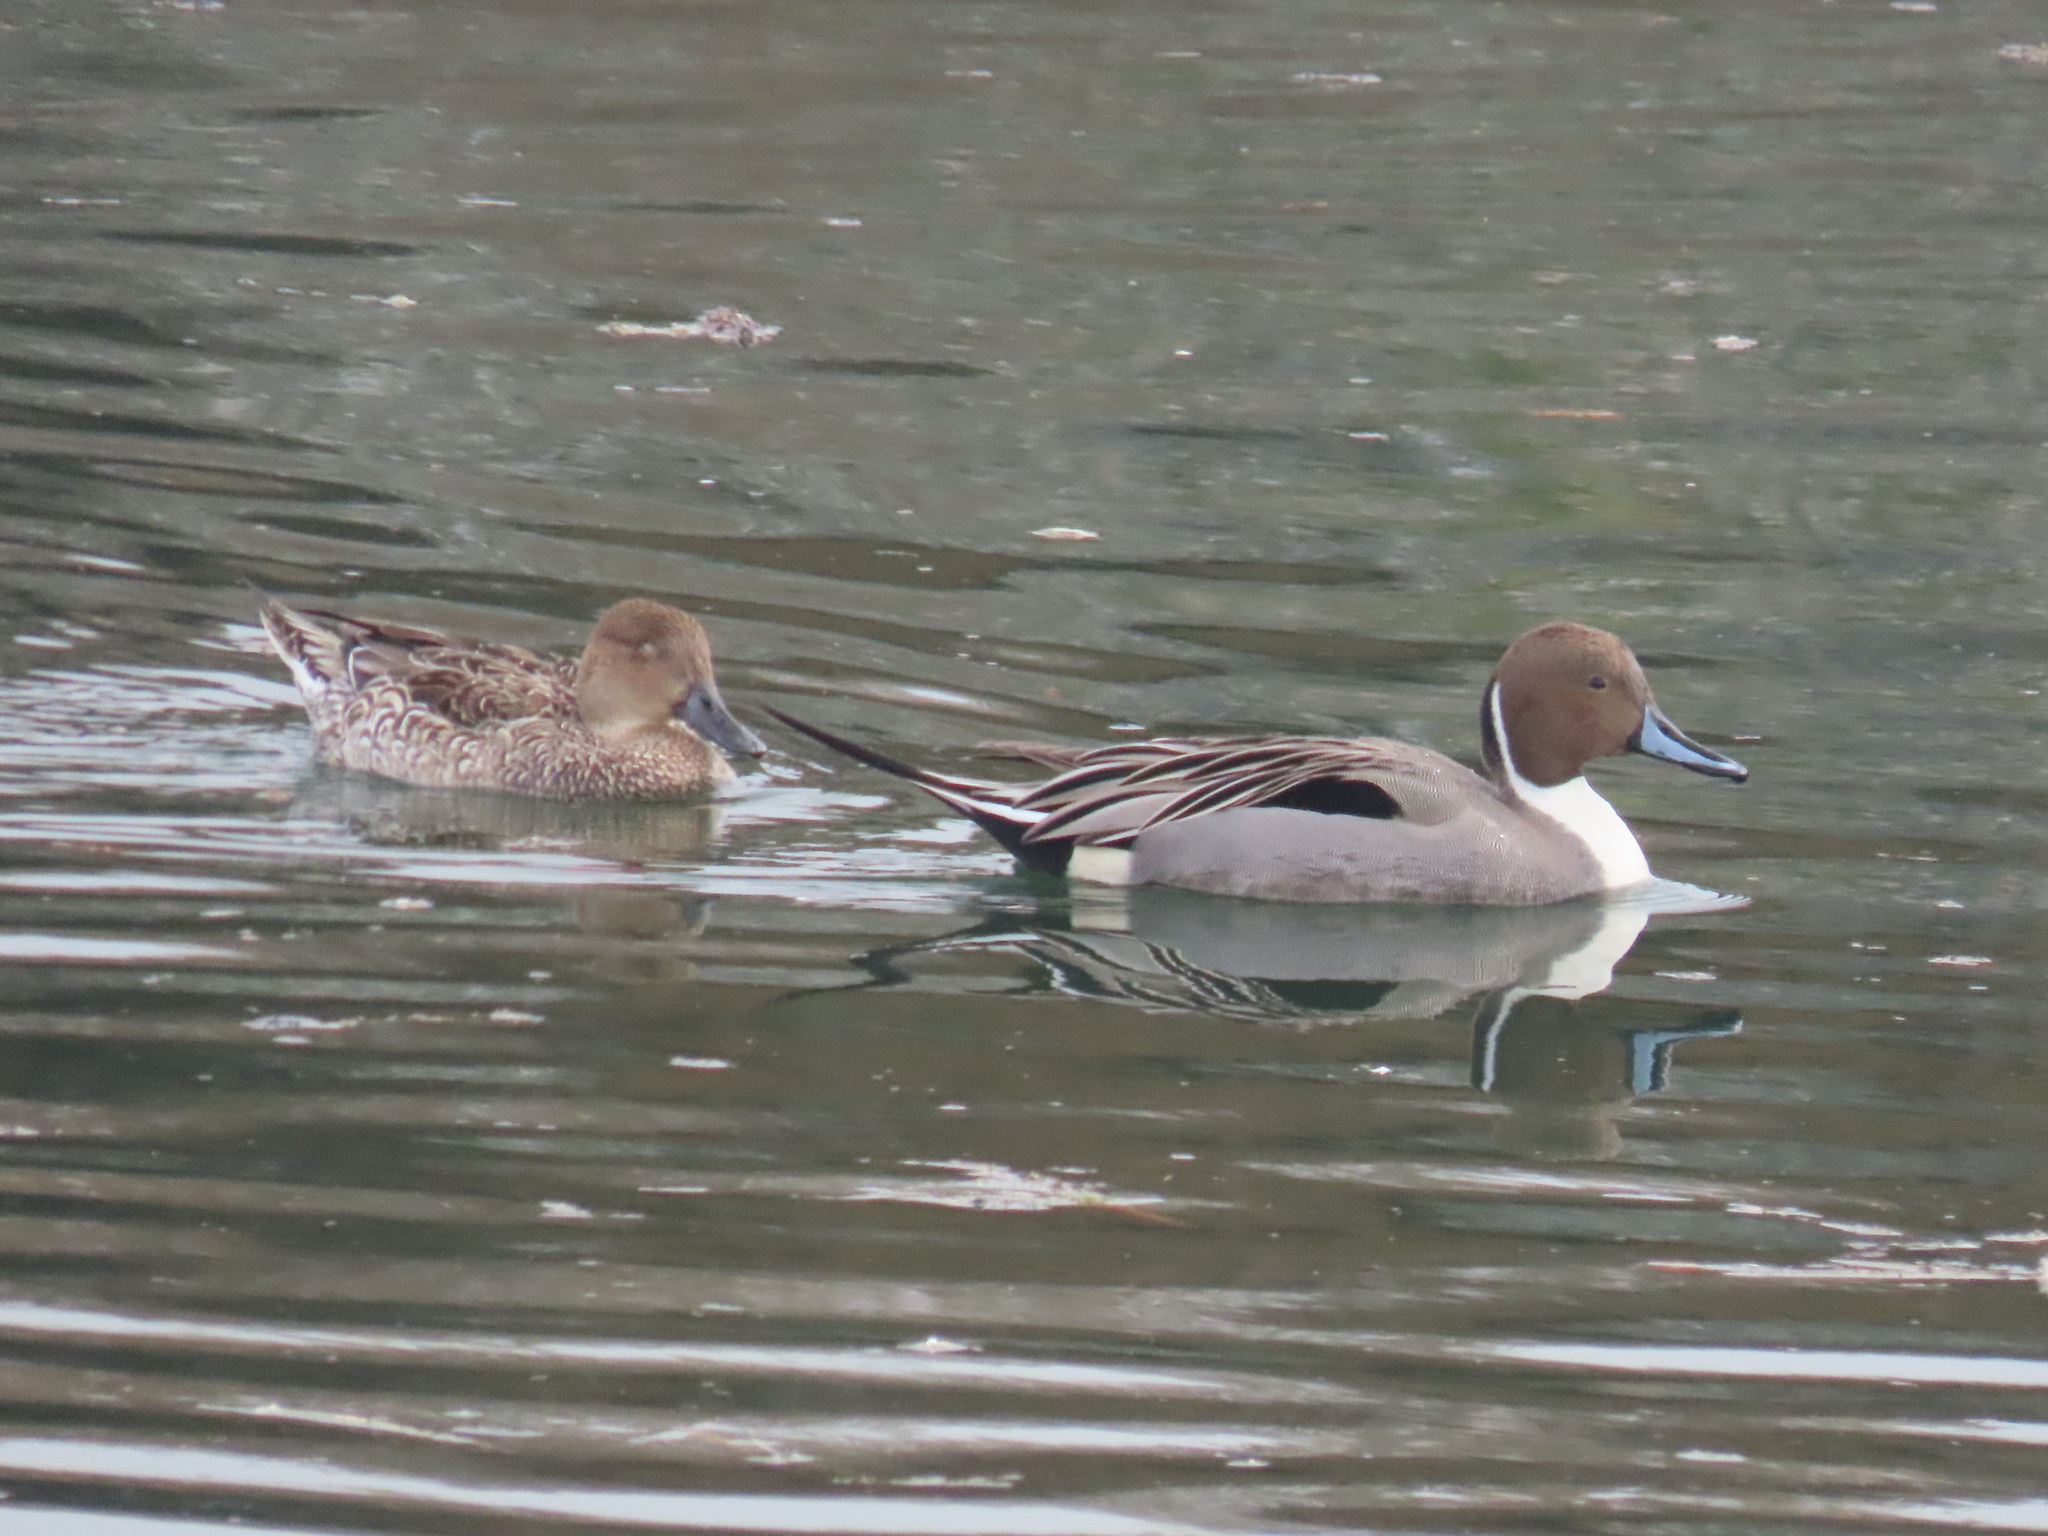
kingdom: Animalia
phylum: Chordata
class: Aves
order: Anseriformes
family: Anatidae
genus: Anas
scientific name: Anas acuta
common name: Northern pintail
